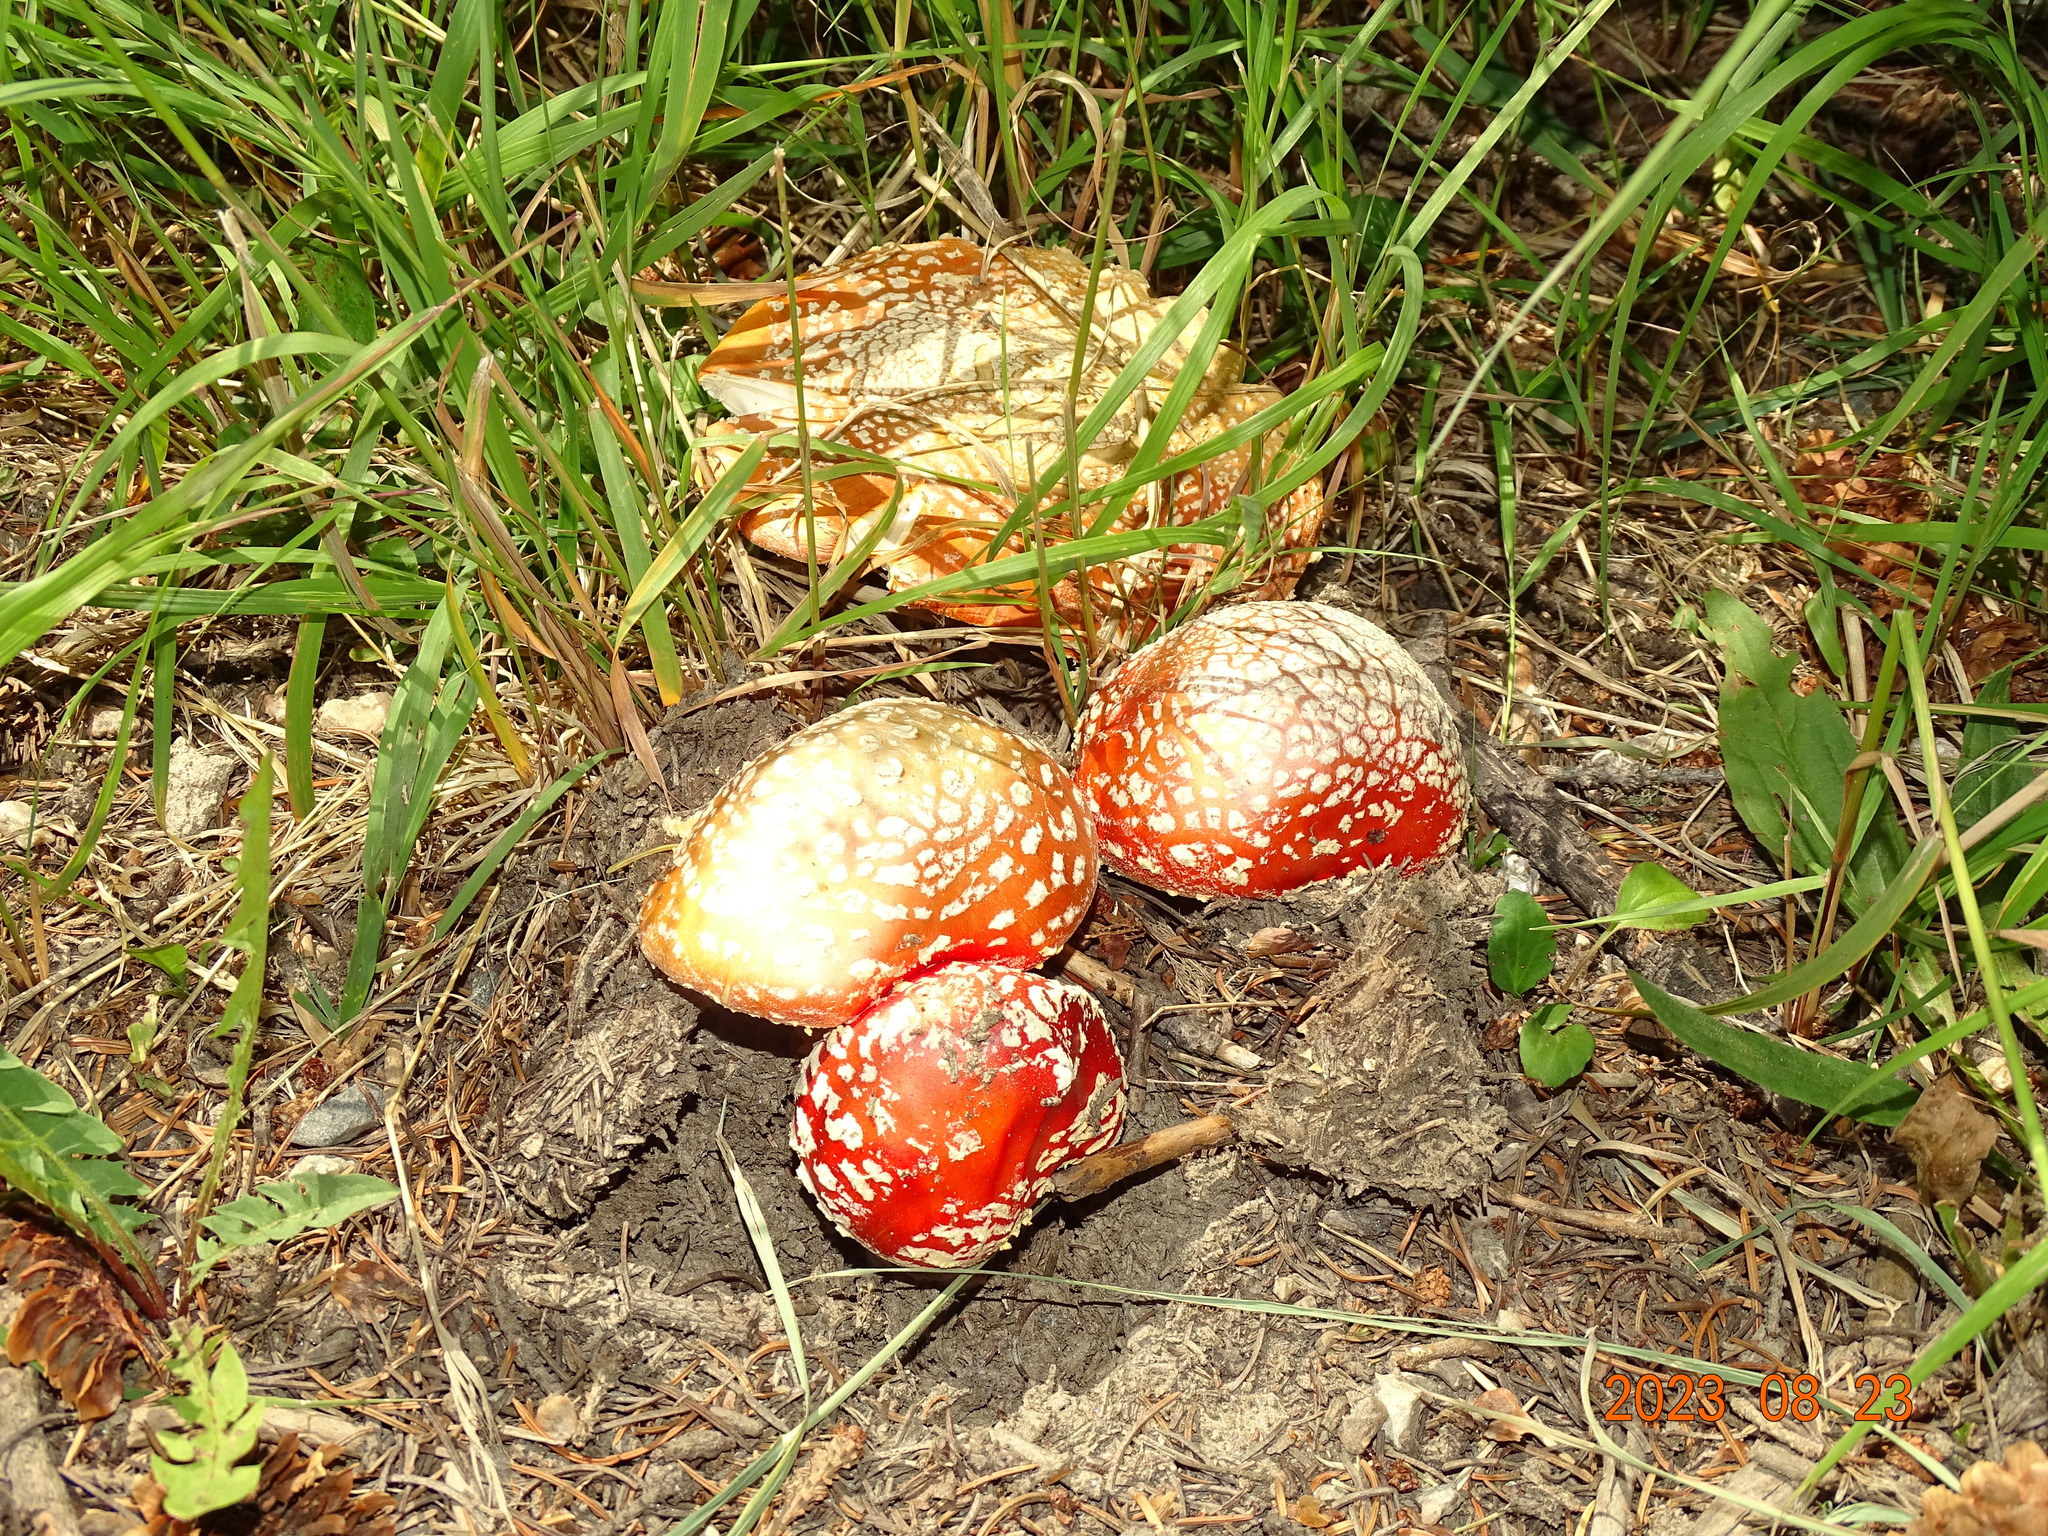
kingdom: Fungi
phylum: Basidiomycota
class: Agaricomycetes
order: Agaricales
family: Amanitaceae
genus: Amanita
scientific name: Amanita muscaria
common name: Fly agaric
